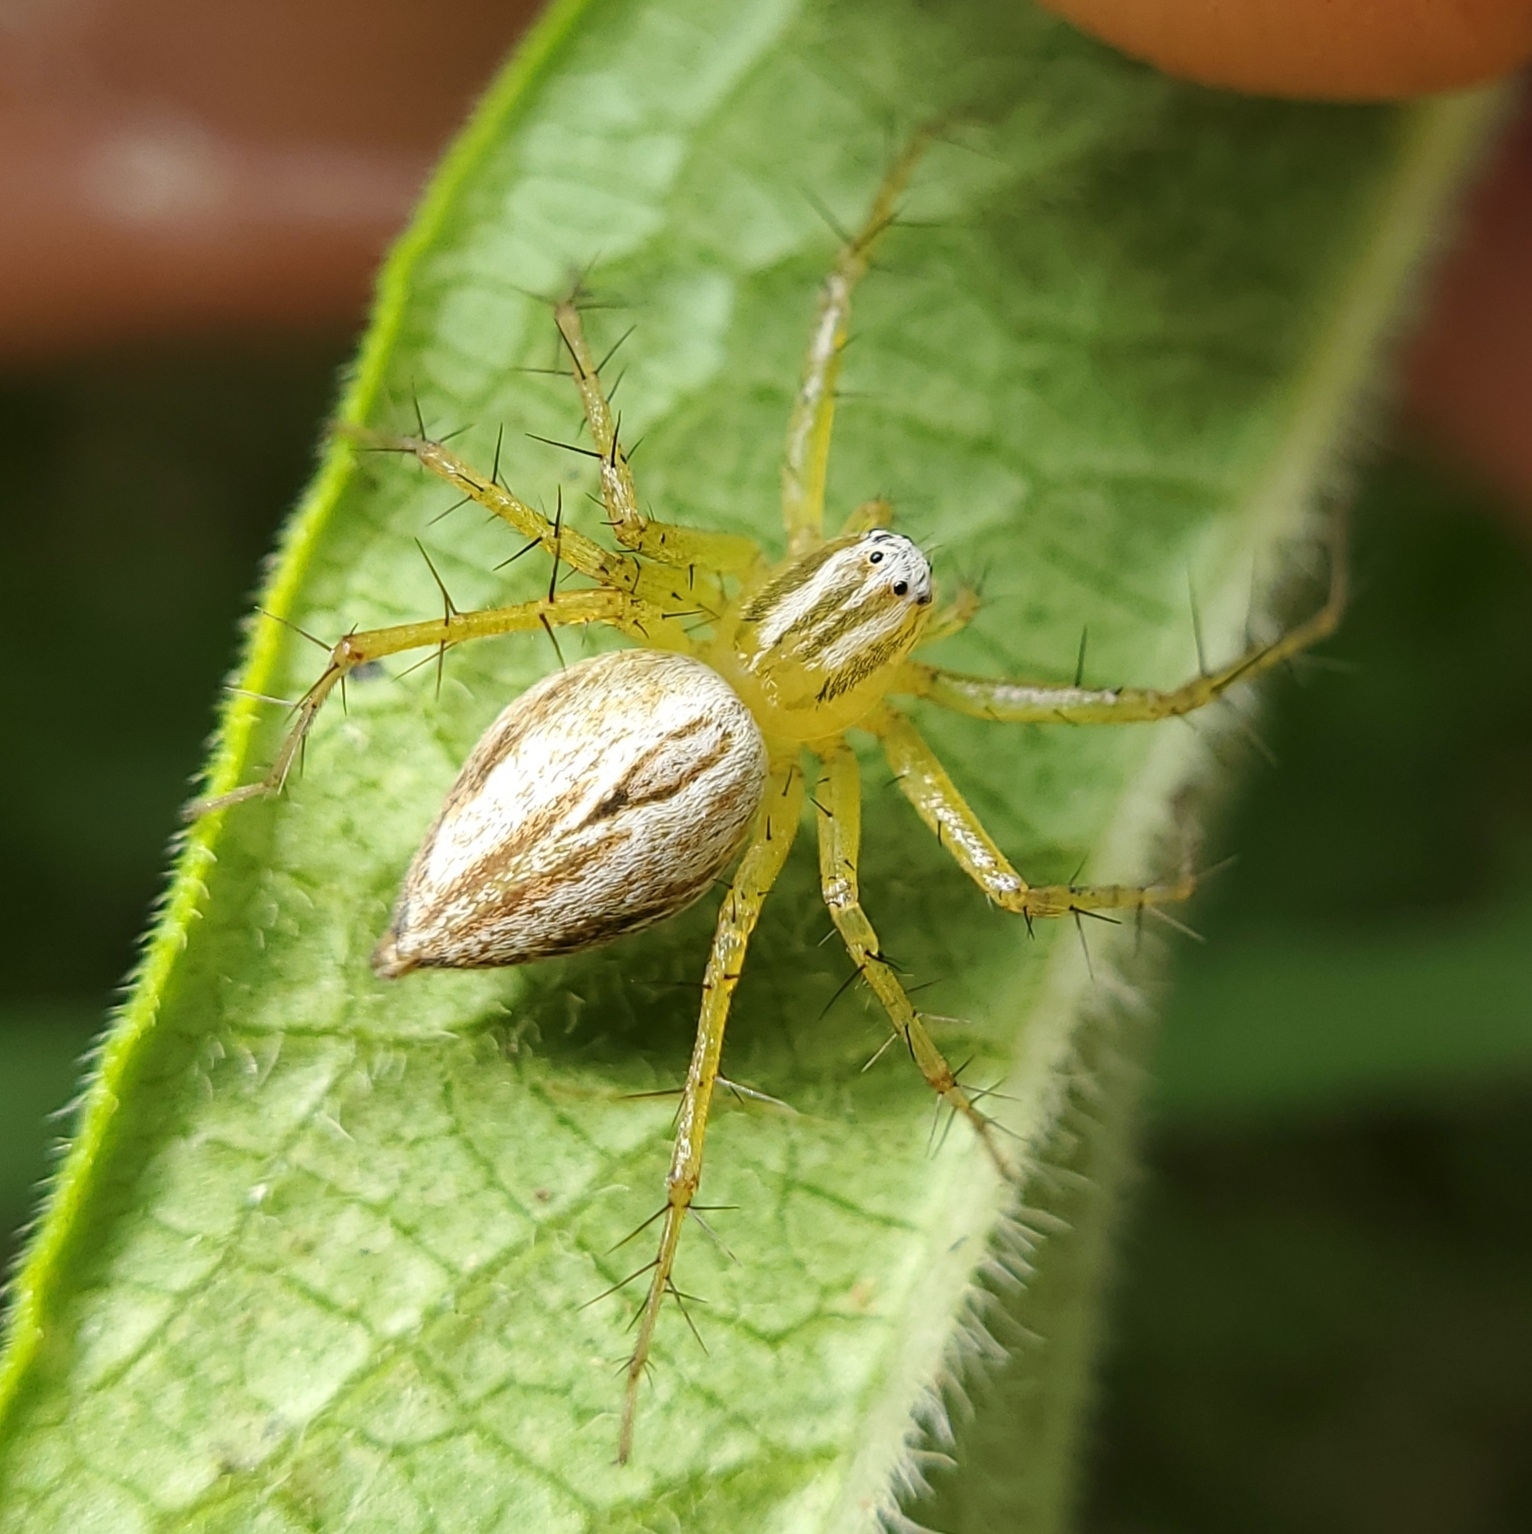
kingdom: Animalia
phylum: Arthropoda
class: Arachnida
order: Araneae
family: Oxyopidae
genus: Oxyopes
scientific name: Oxyopes salticus
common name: Lynx spiders
